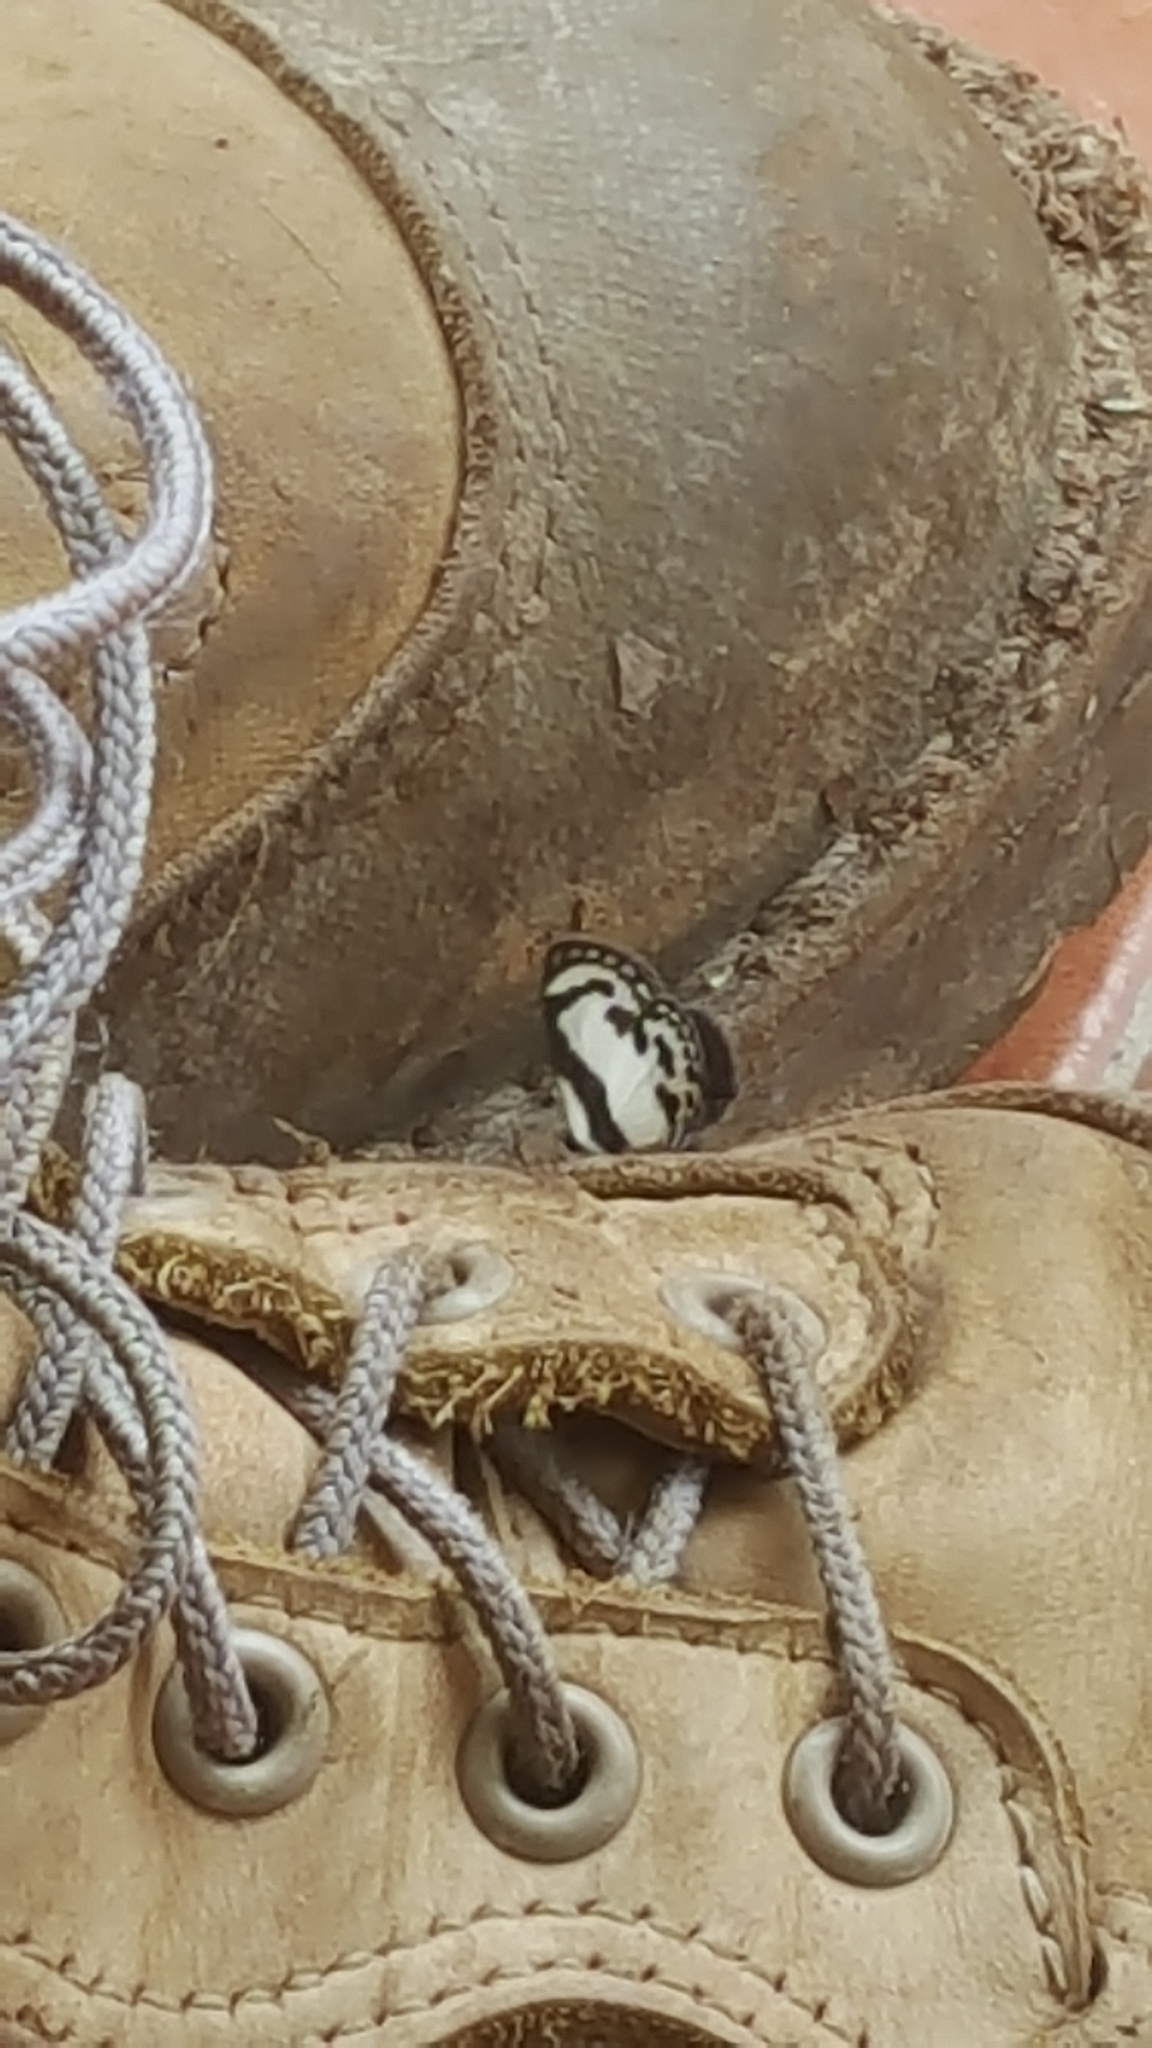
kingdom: Animalia
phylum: Arthropoda
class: Insecta
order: Lepidoptera
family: Lycaenidae
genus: Caleta
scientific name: Caleta roxus
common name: Straight pierrot
